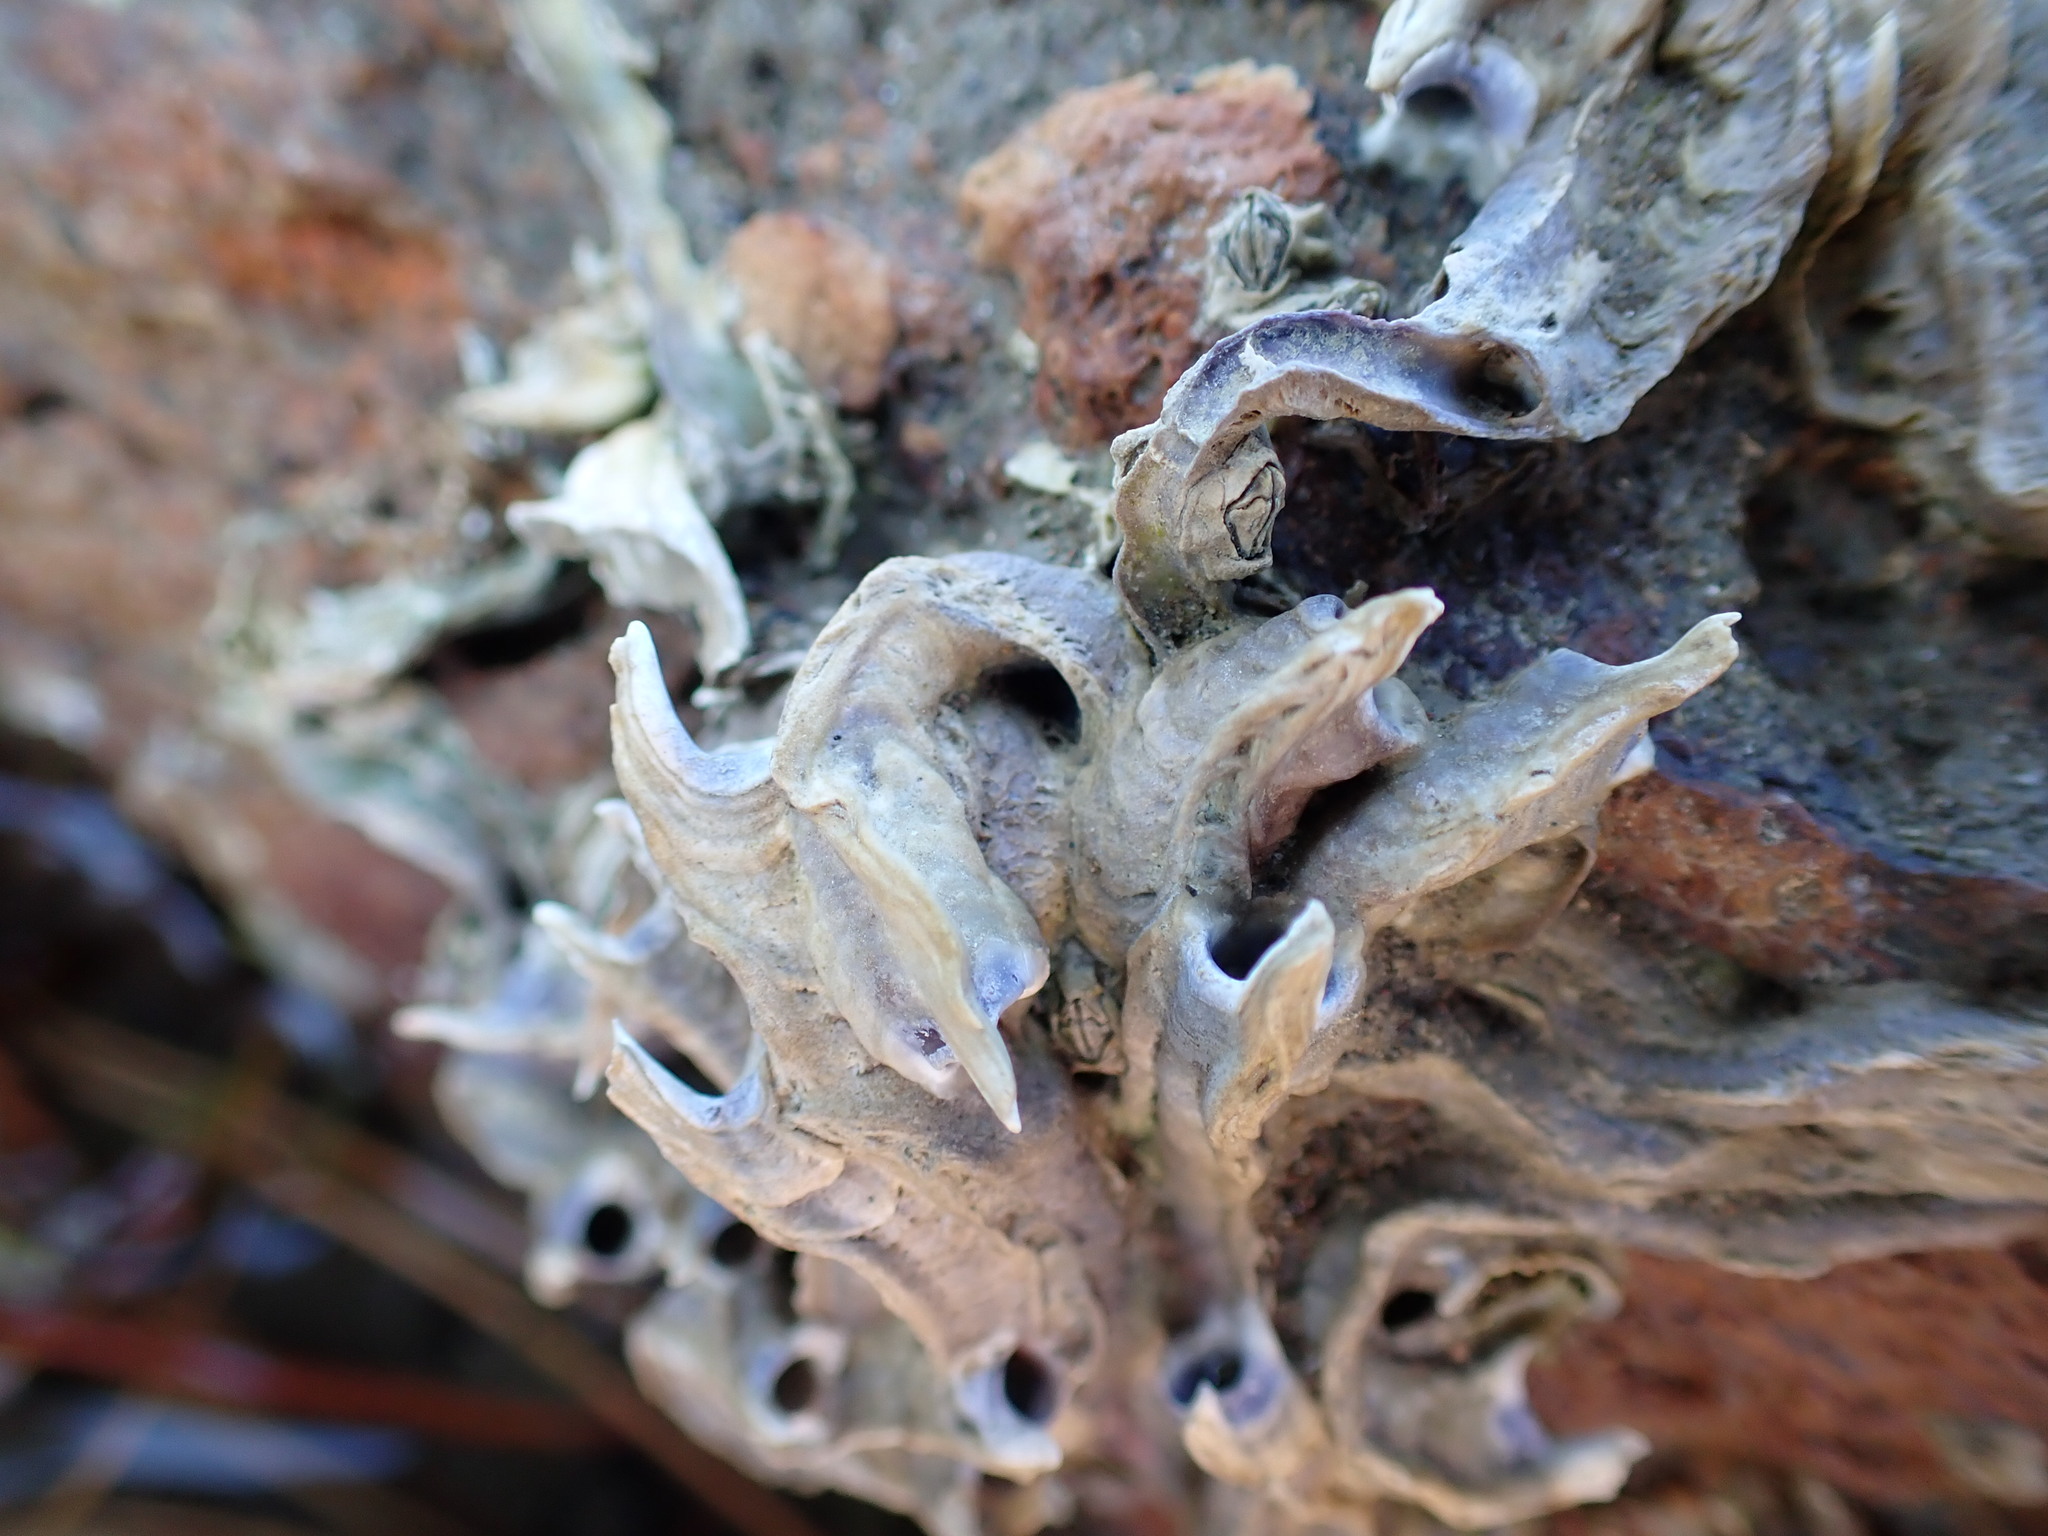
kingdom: Animalia
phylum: Annelida
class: Polychaeta
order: Sabellida
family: Serpulidae
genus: Spirobranchus
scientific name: Spirobranchus cariniferus
